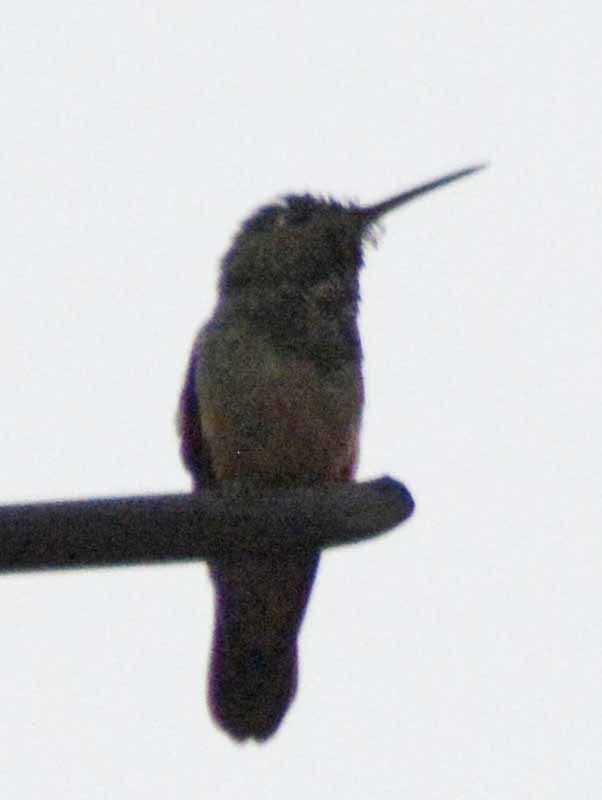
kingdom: Animalia
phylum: Chordata
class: Aves
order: Apodiformes
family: Trochilidae
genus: Saucerottia
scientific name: Saucerottia beryllina
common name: Berylline hummingbird
